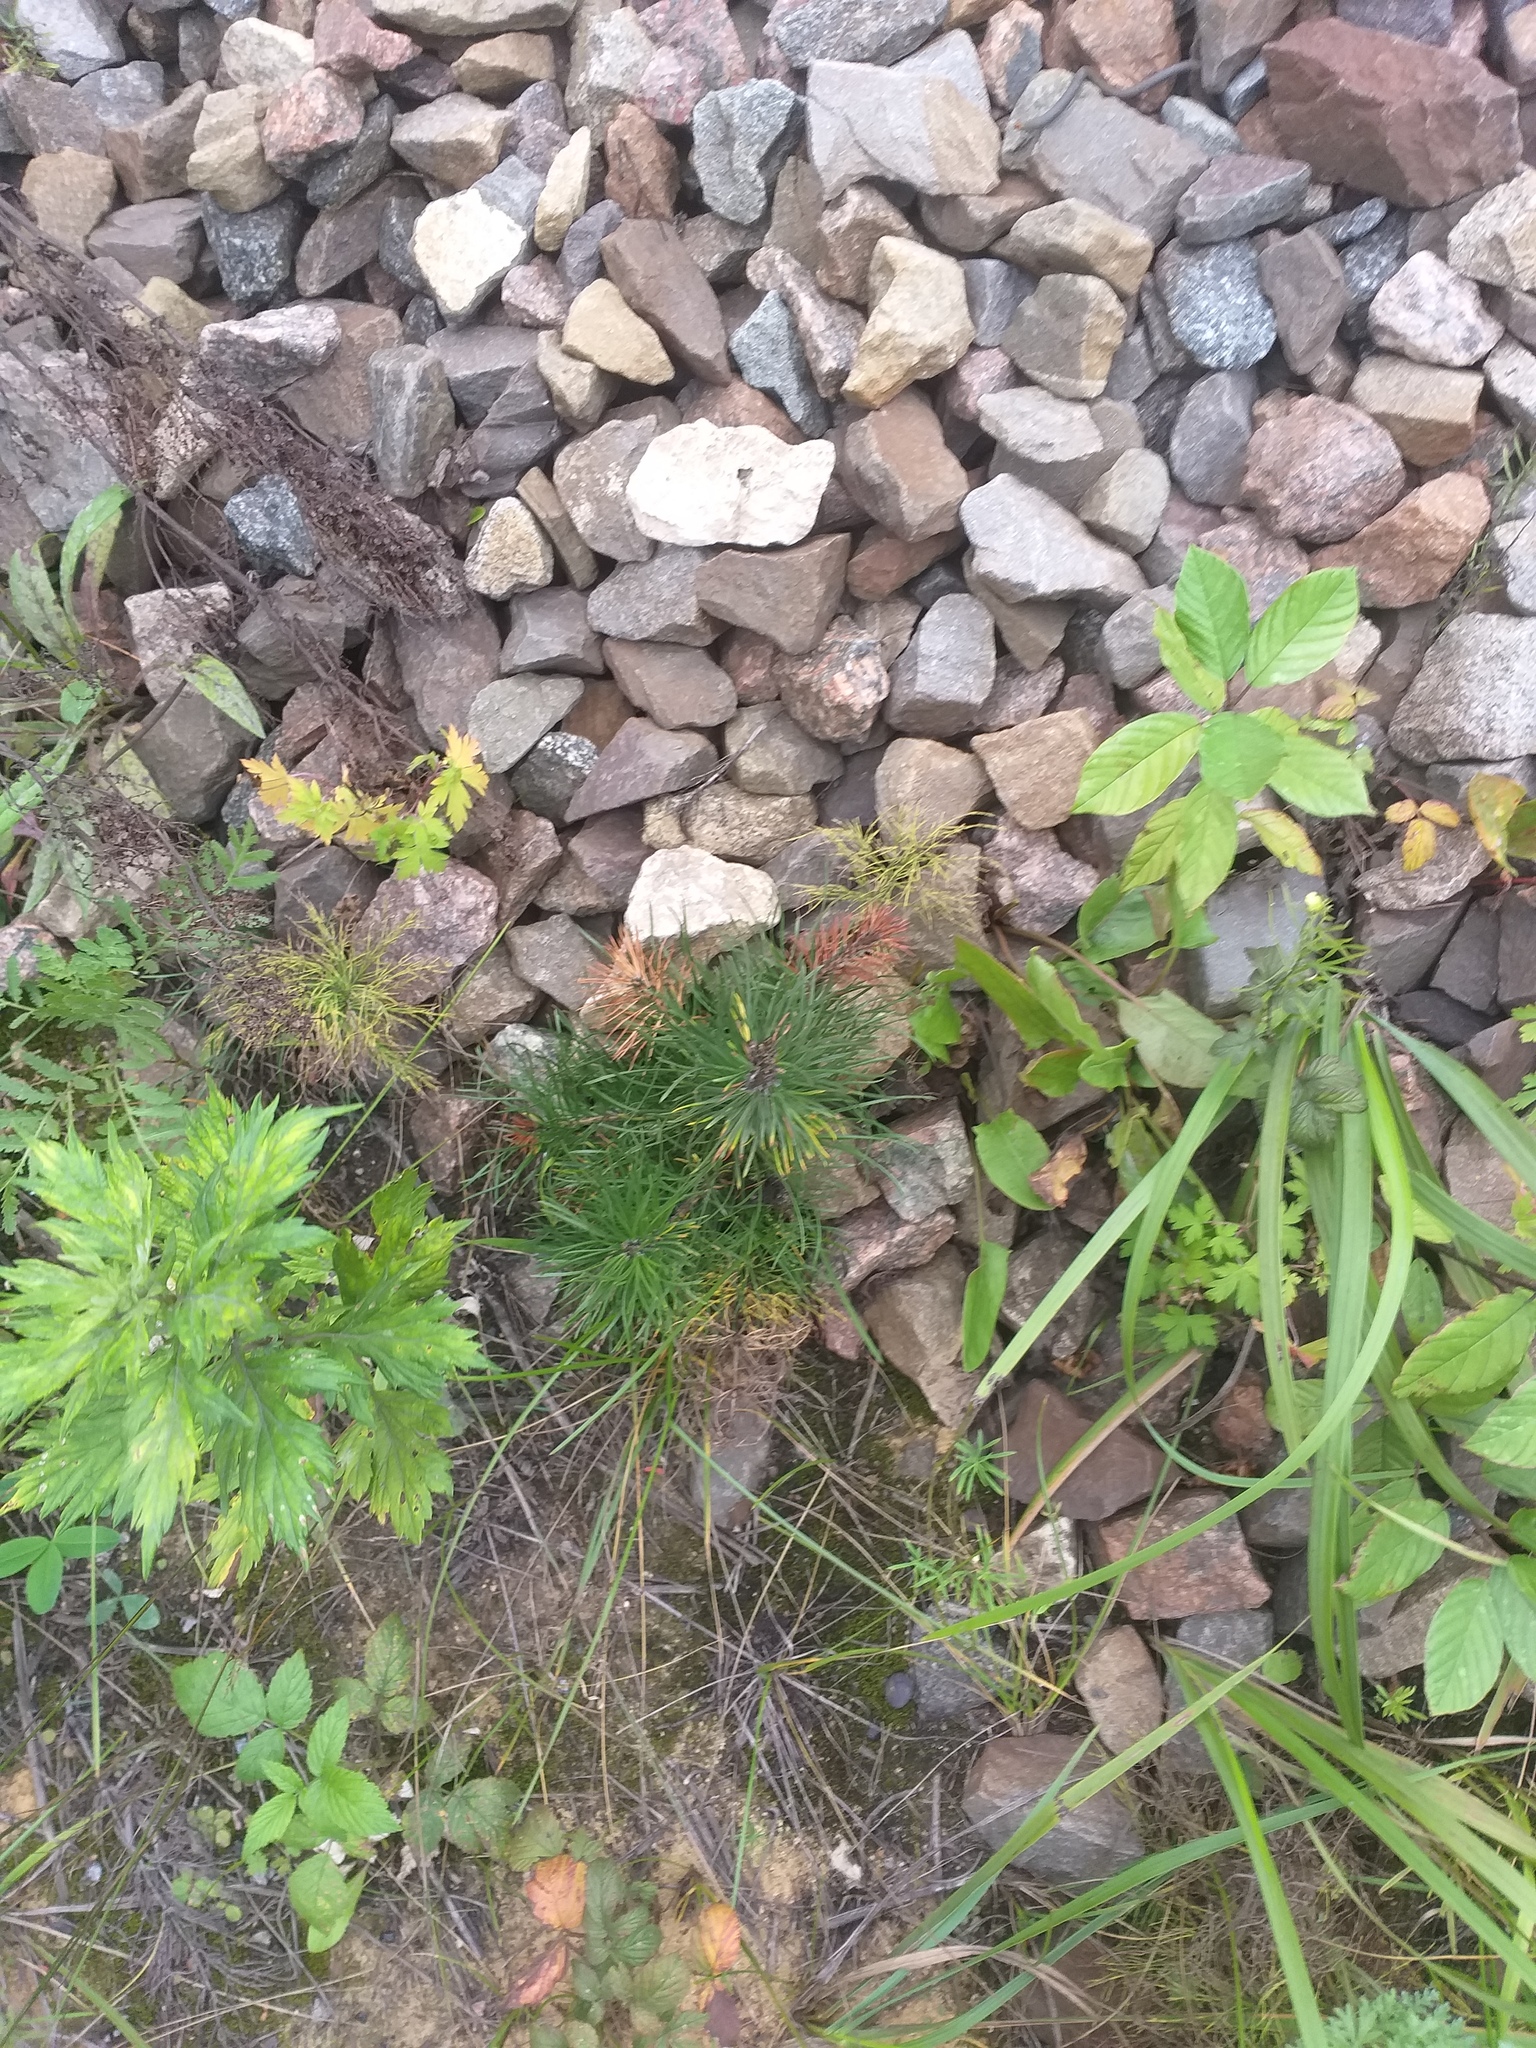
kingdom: Plantae
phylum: Tracheophyta
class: Pinopsida
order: Pinales
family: Pinaceae
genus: Pinus
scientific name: Pinus sylvestris
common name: Scots pine
